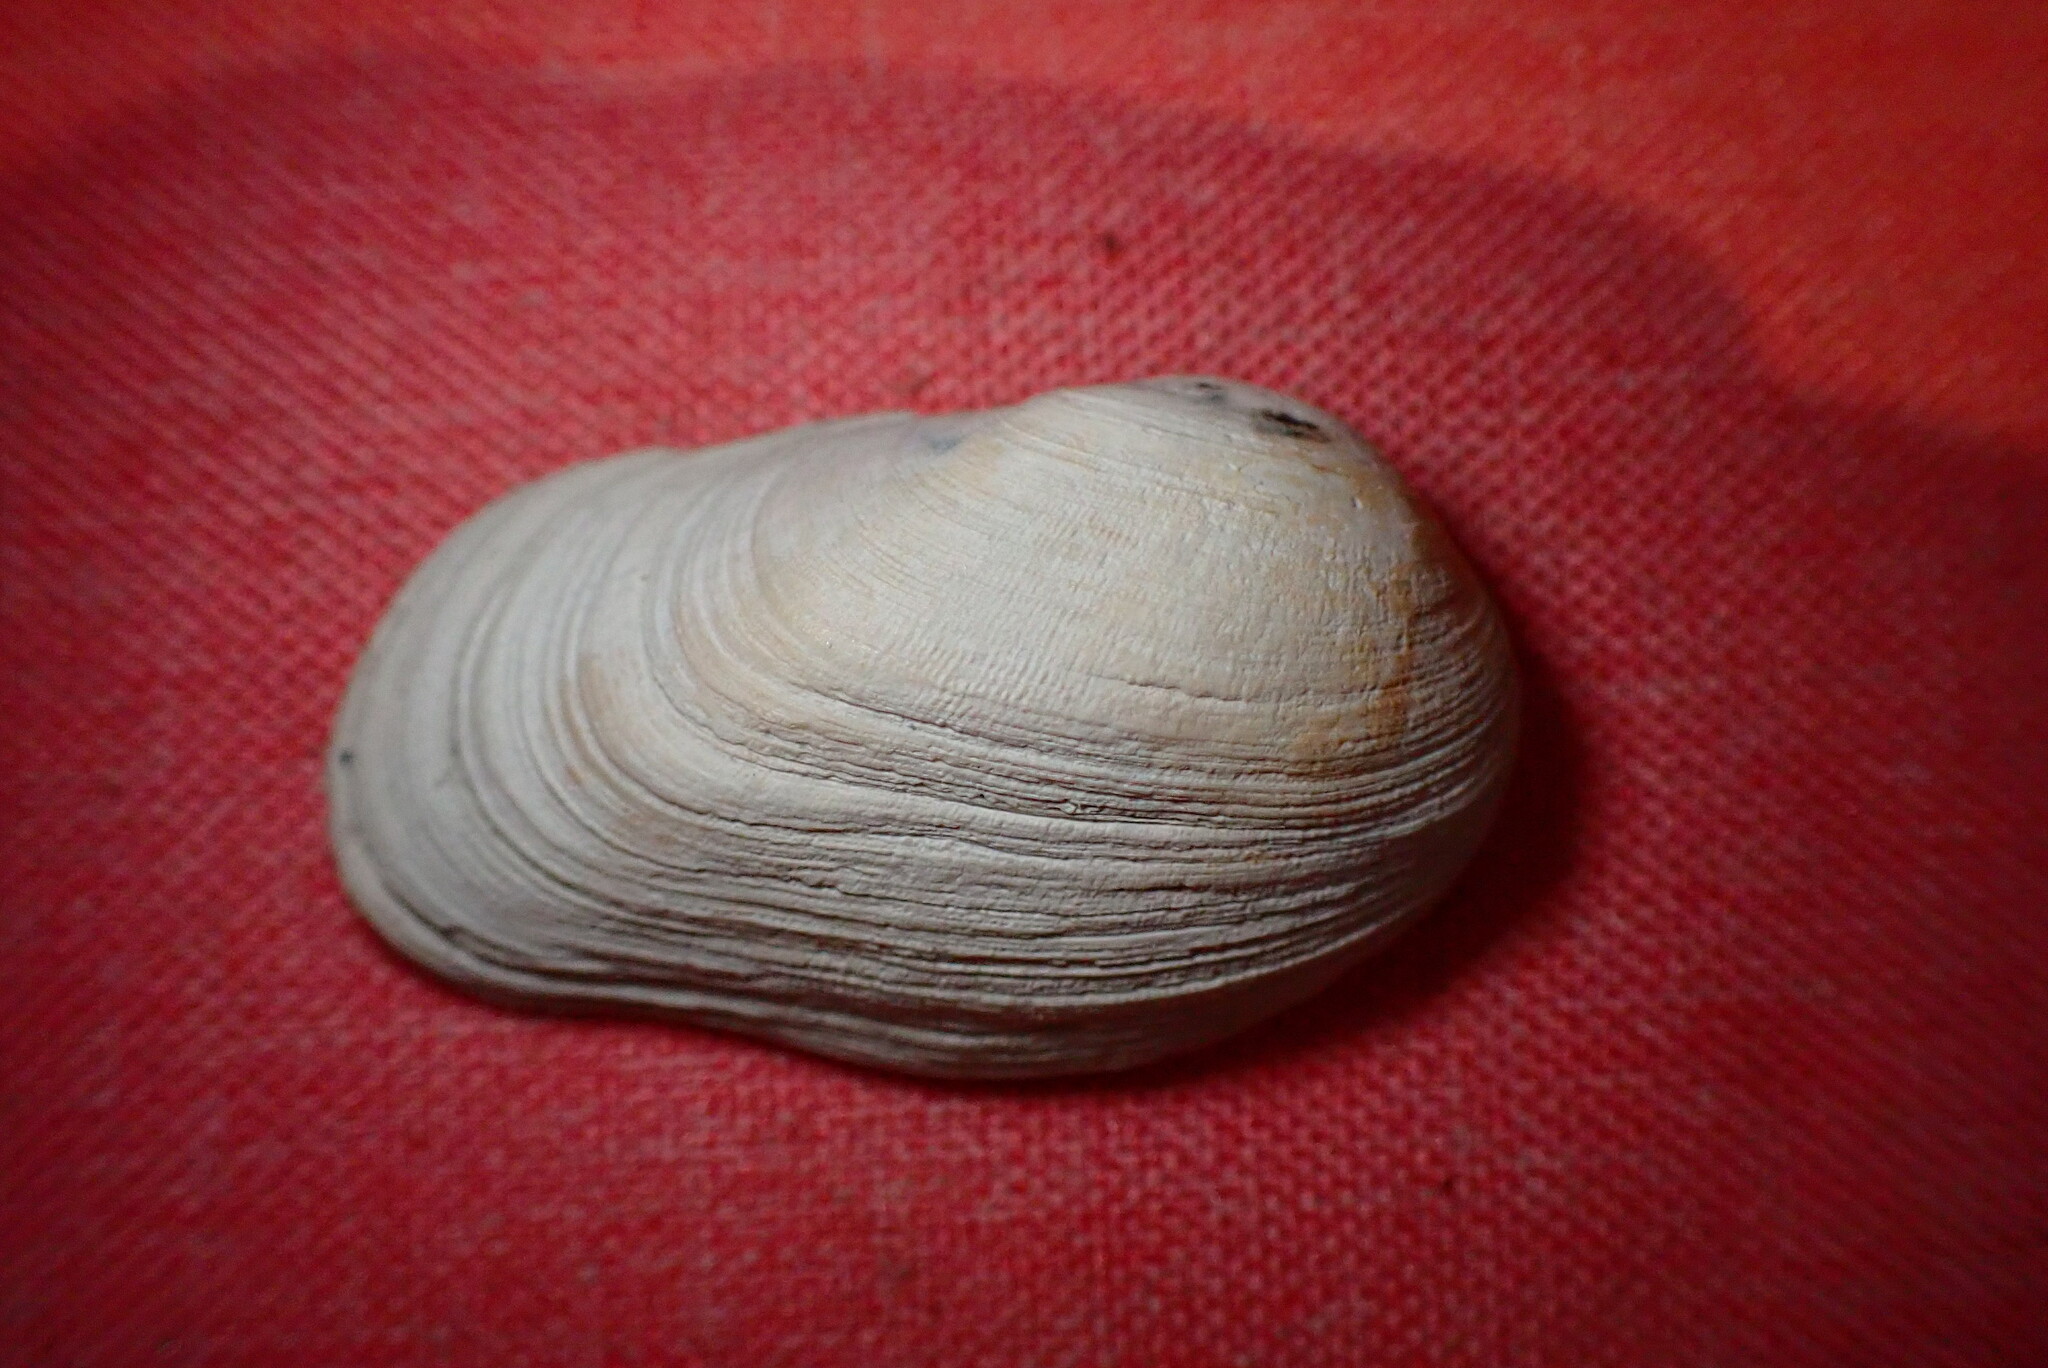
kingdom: Animalia
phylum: Mollusca
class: Bivalvia
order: Venerida
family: Veneridae
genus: Petricola
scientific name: Petricola carditoides
